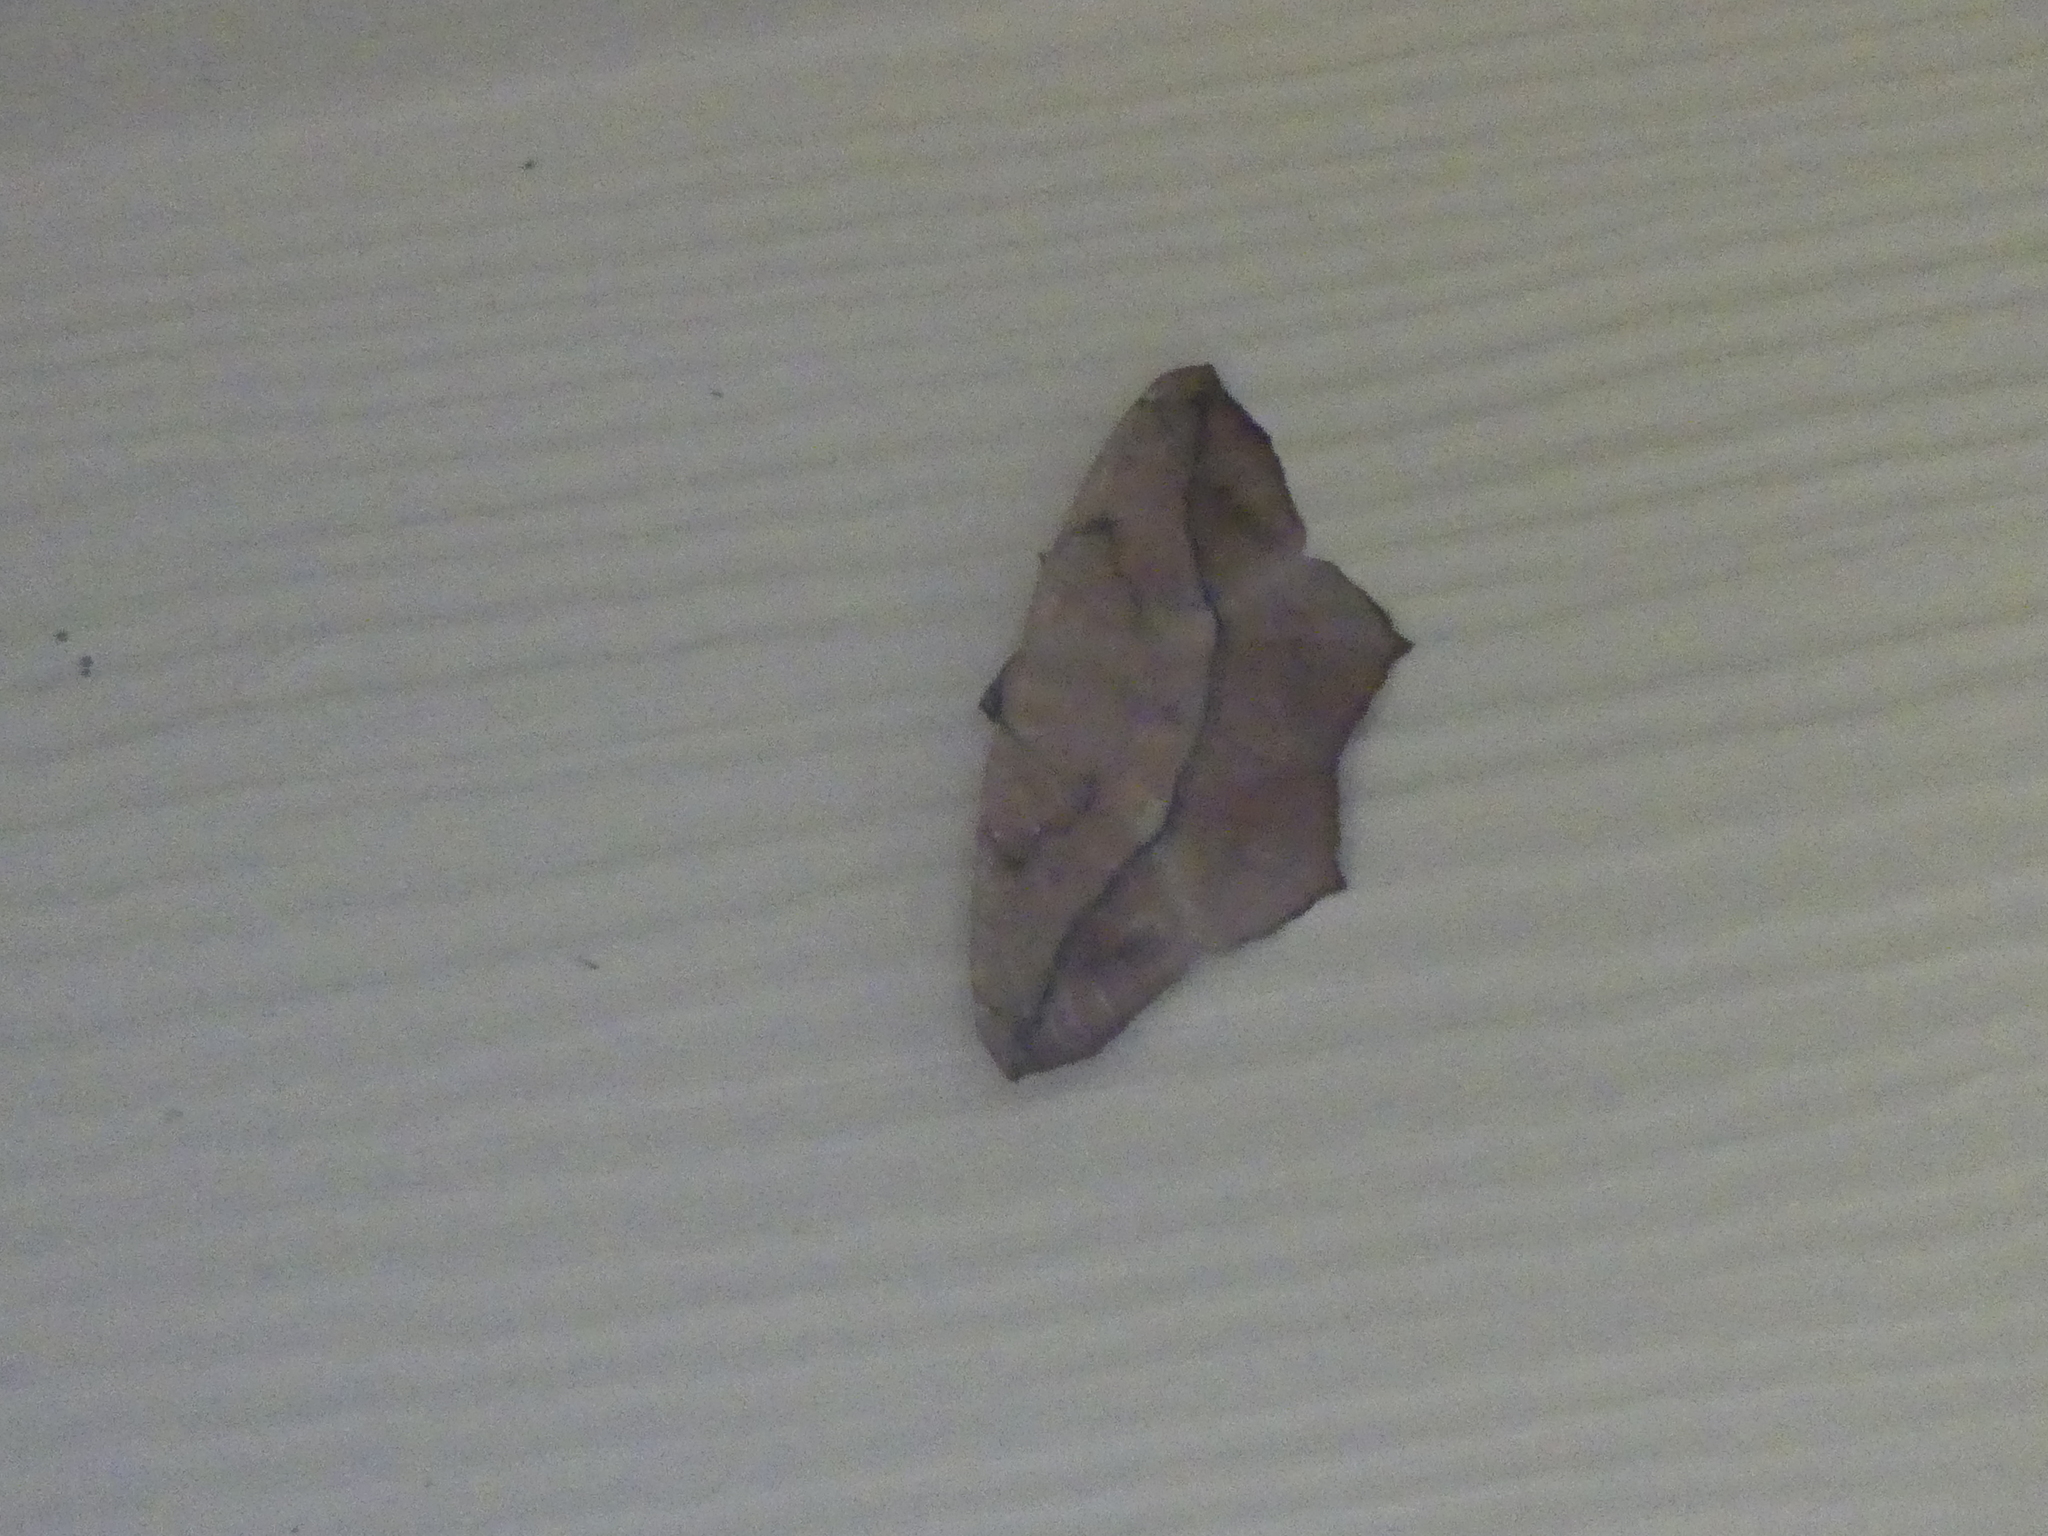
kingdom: Animalia
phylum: Arthropoda
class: Insecta
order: Lepidoptera
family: Geometridae
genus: Prochoerodes
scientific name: Prochoerodes lineola
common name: Large maple spanworm
